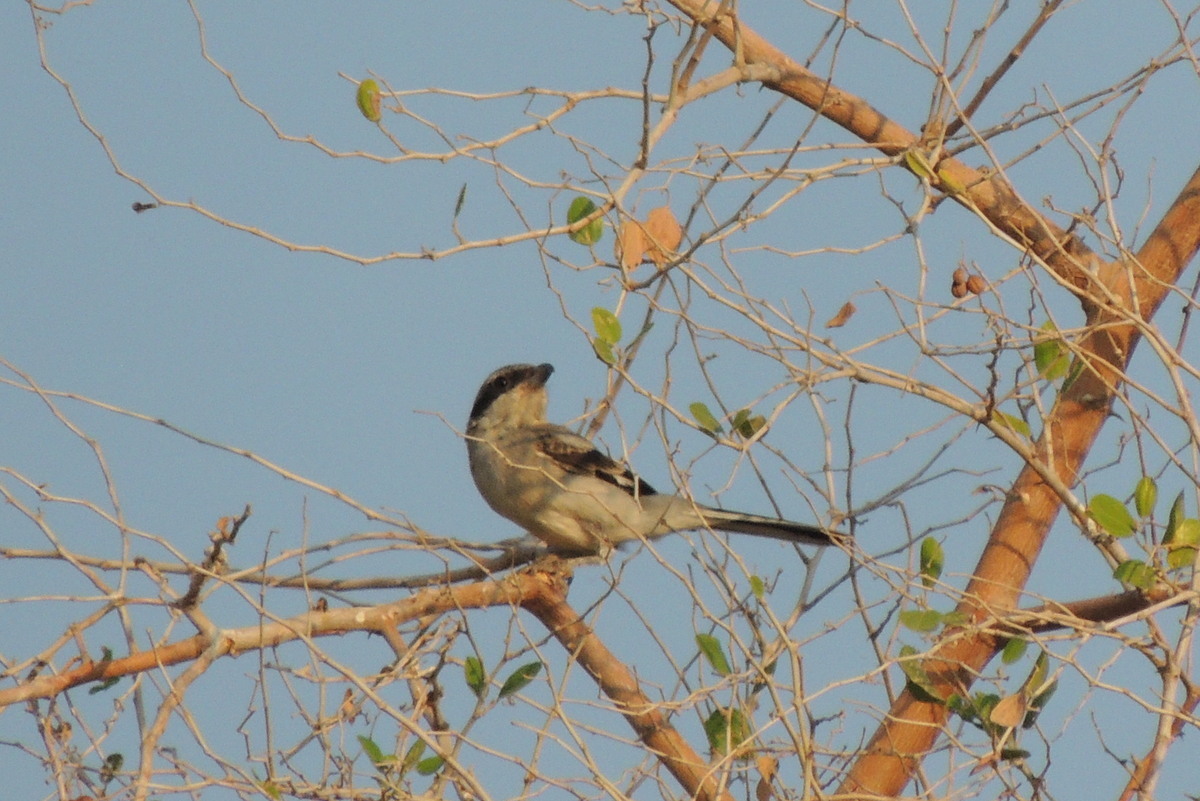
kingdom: Animalia
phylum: Chordata
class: Aves
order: Passeriformes
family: Laniidae
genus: Lanius
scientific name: Lanius excubitor
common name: Great grey shrike
